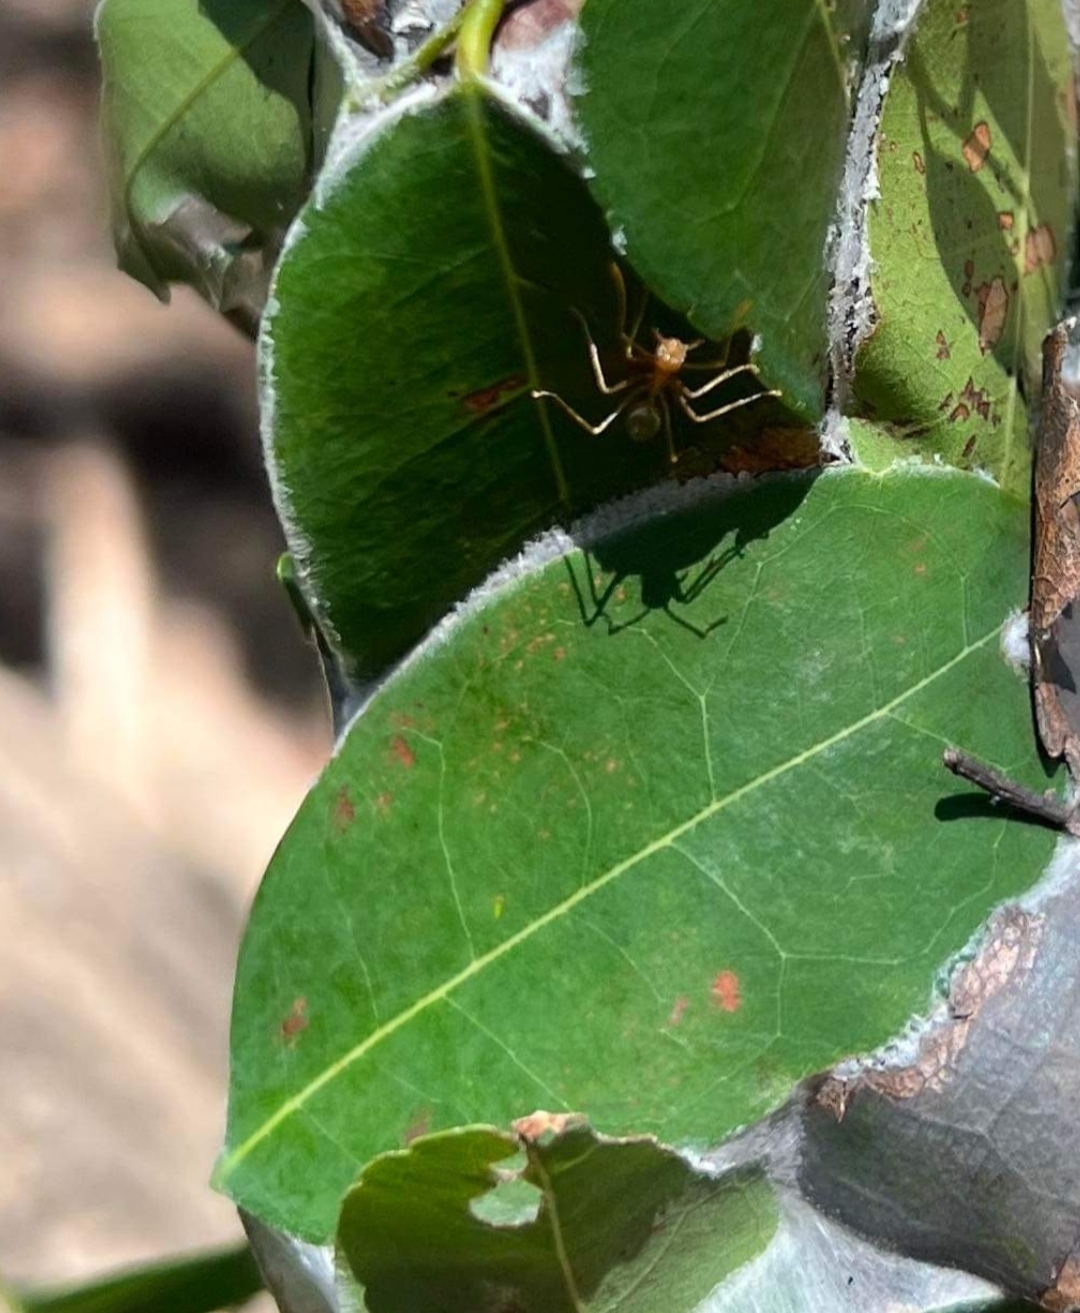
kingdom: Animalia
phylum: Arthropoda
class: Insecta
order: Hymenoptera
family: Formicidae
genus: Oecophylla
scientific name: Oecophylla smaragdina
